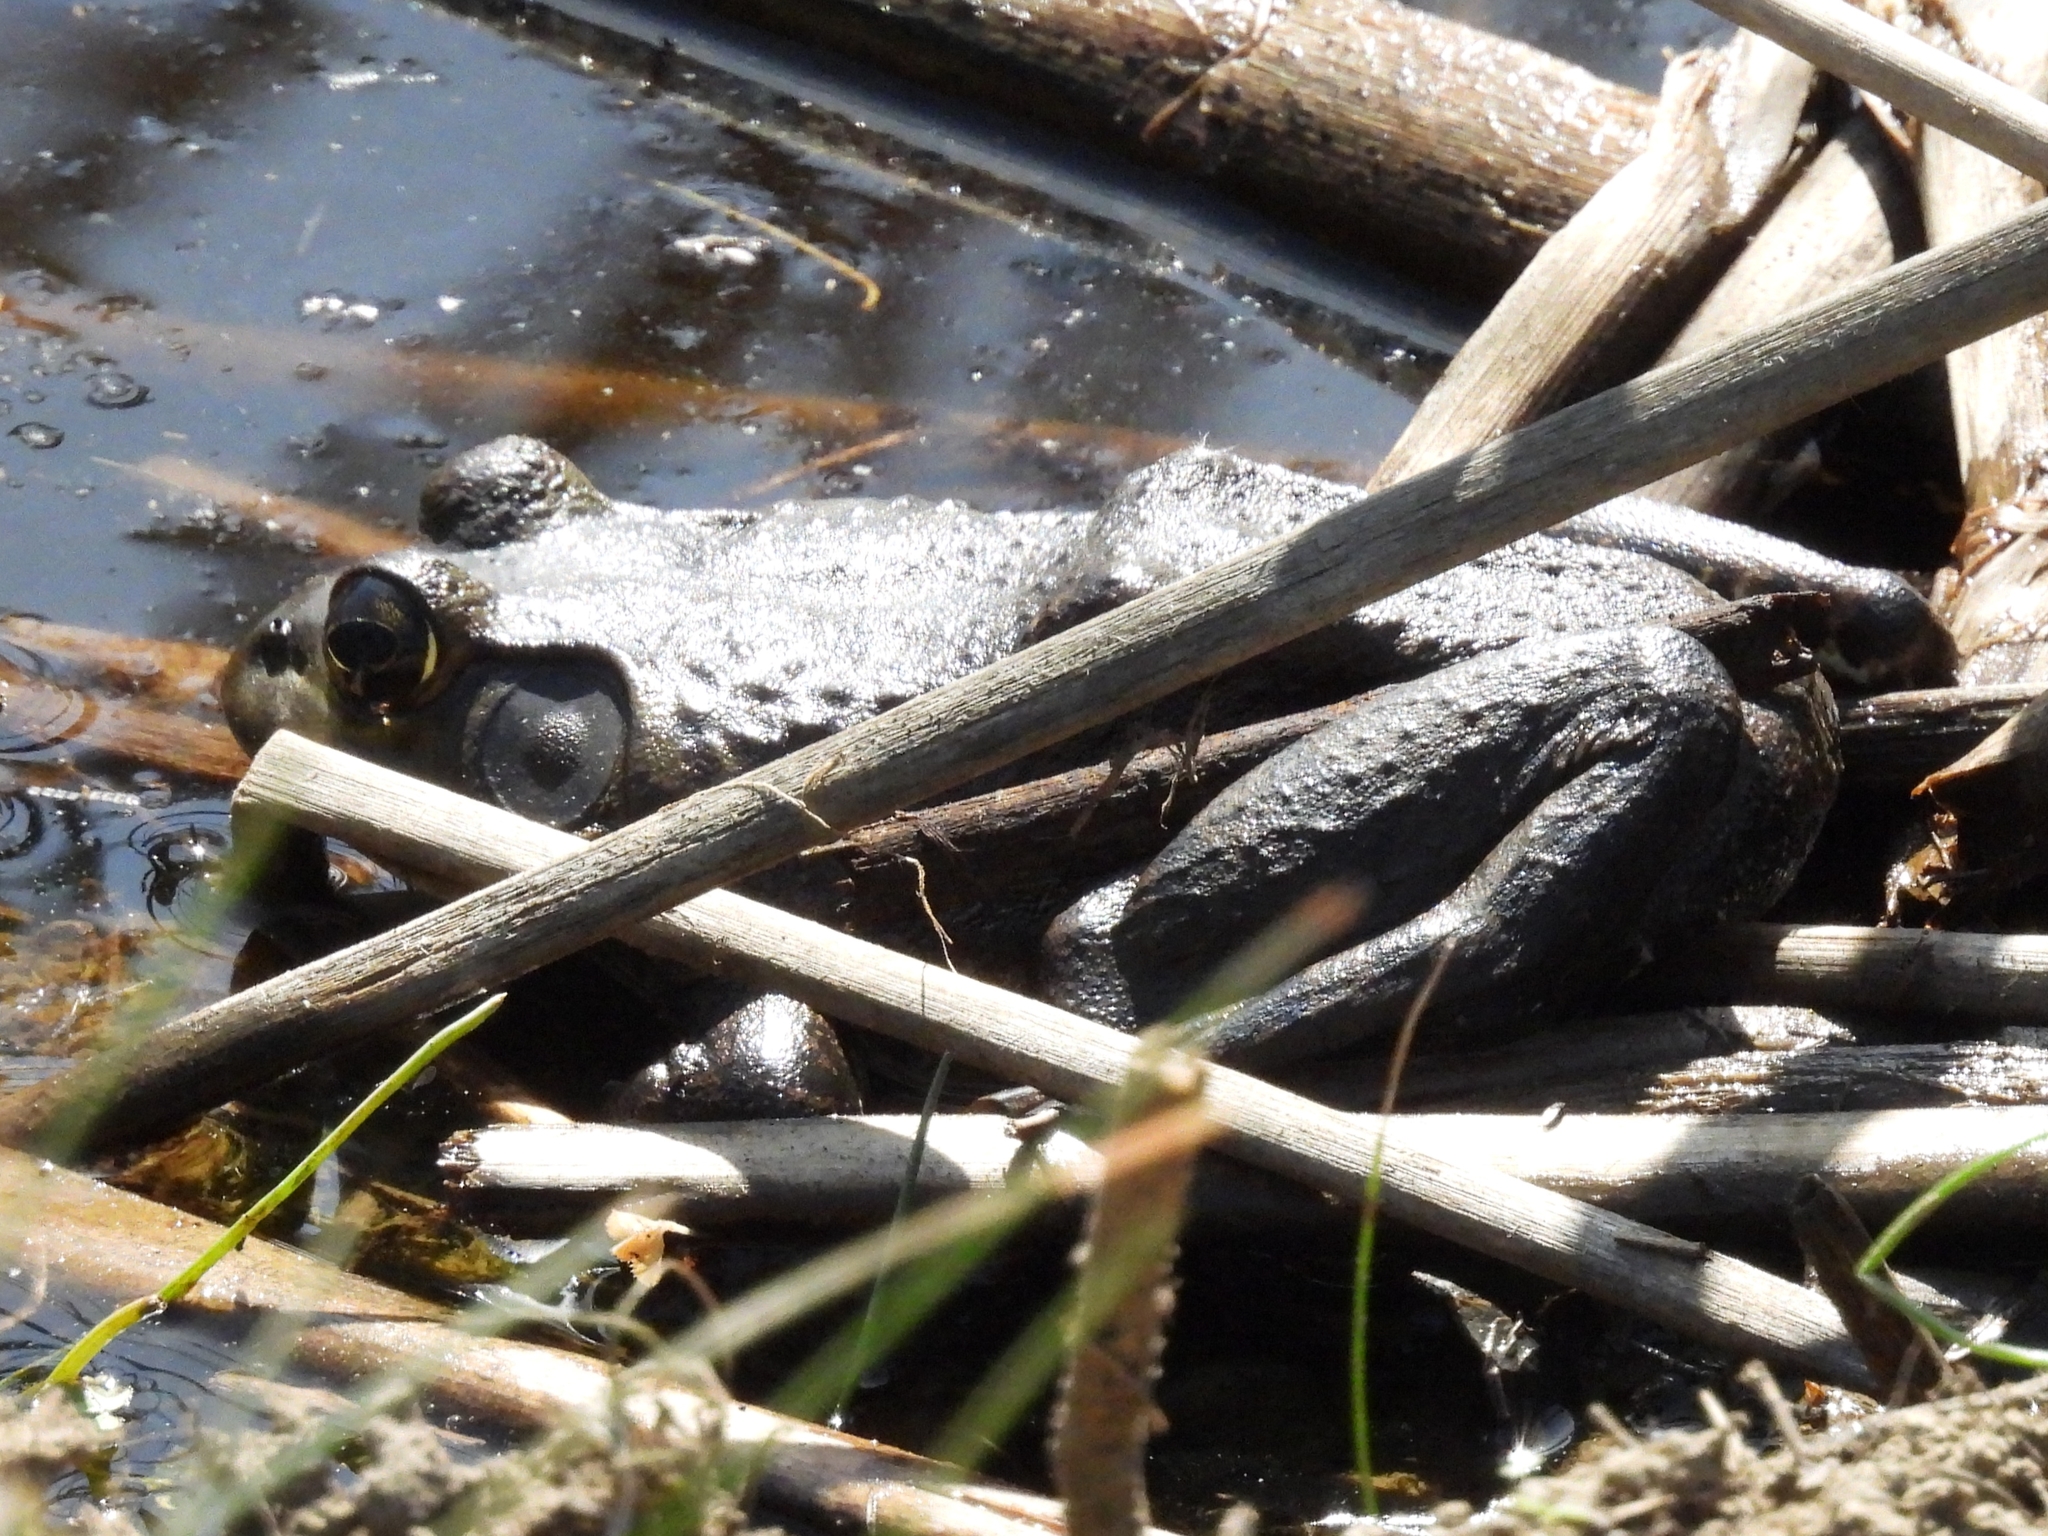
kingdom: Animalia
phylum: Chordata
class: Amphibia
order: Anura
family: Ranidae
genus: Lithobates
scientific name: Lithobates catesbeianus
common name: American bullfrog
